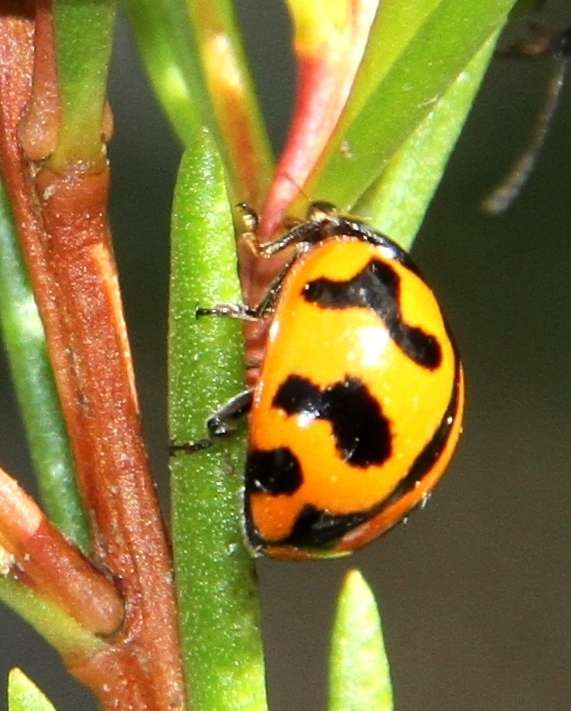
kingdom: Animalia
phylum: Arthropoda
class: Insecta
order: Coleoptera
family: Coccinellidae
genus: Coccinella
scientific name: Coccinella transversalis
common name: Transverse lady beetle
